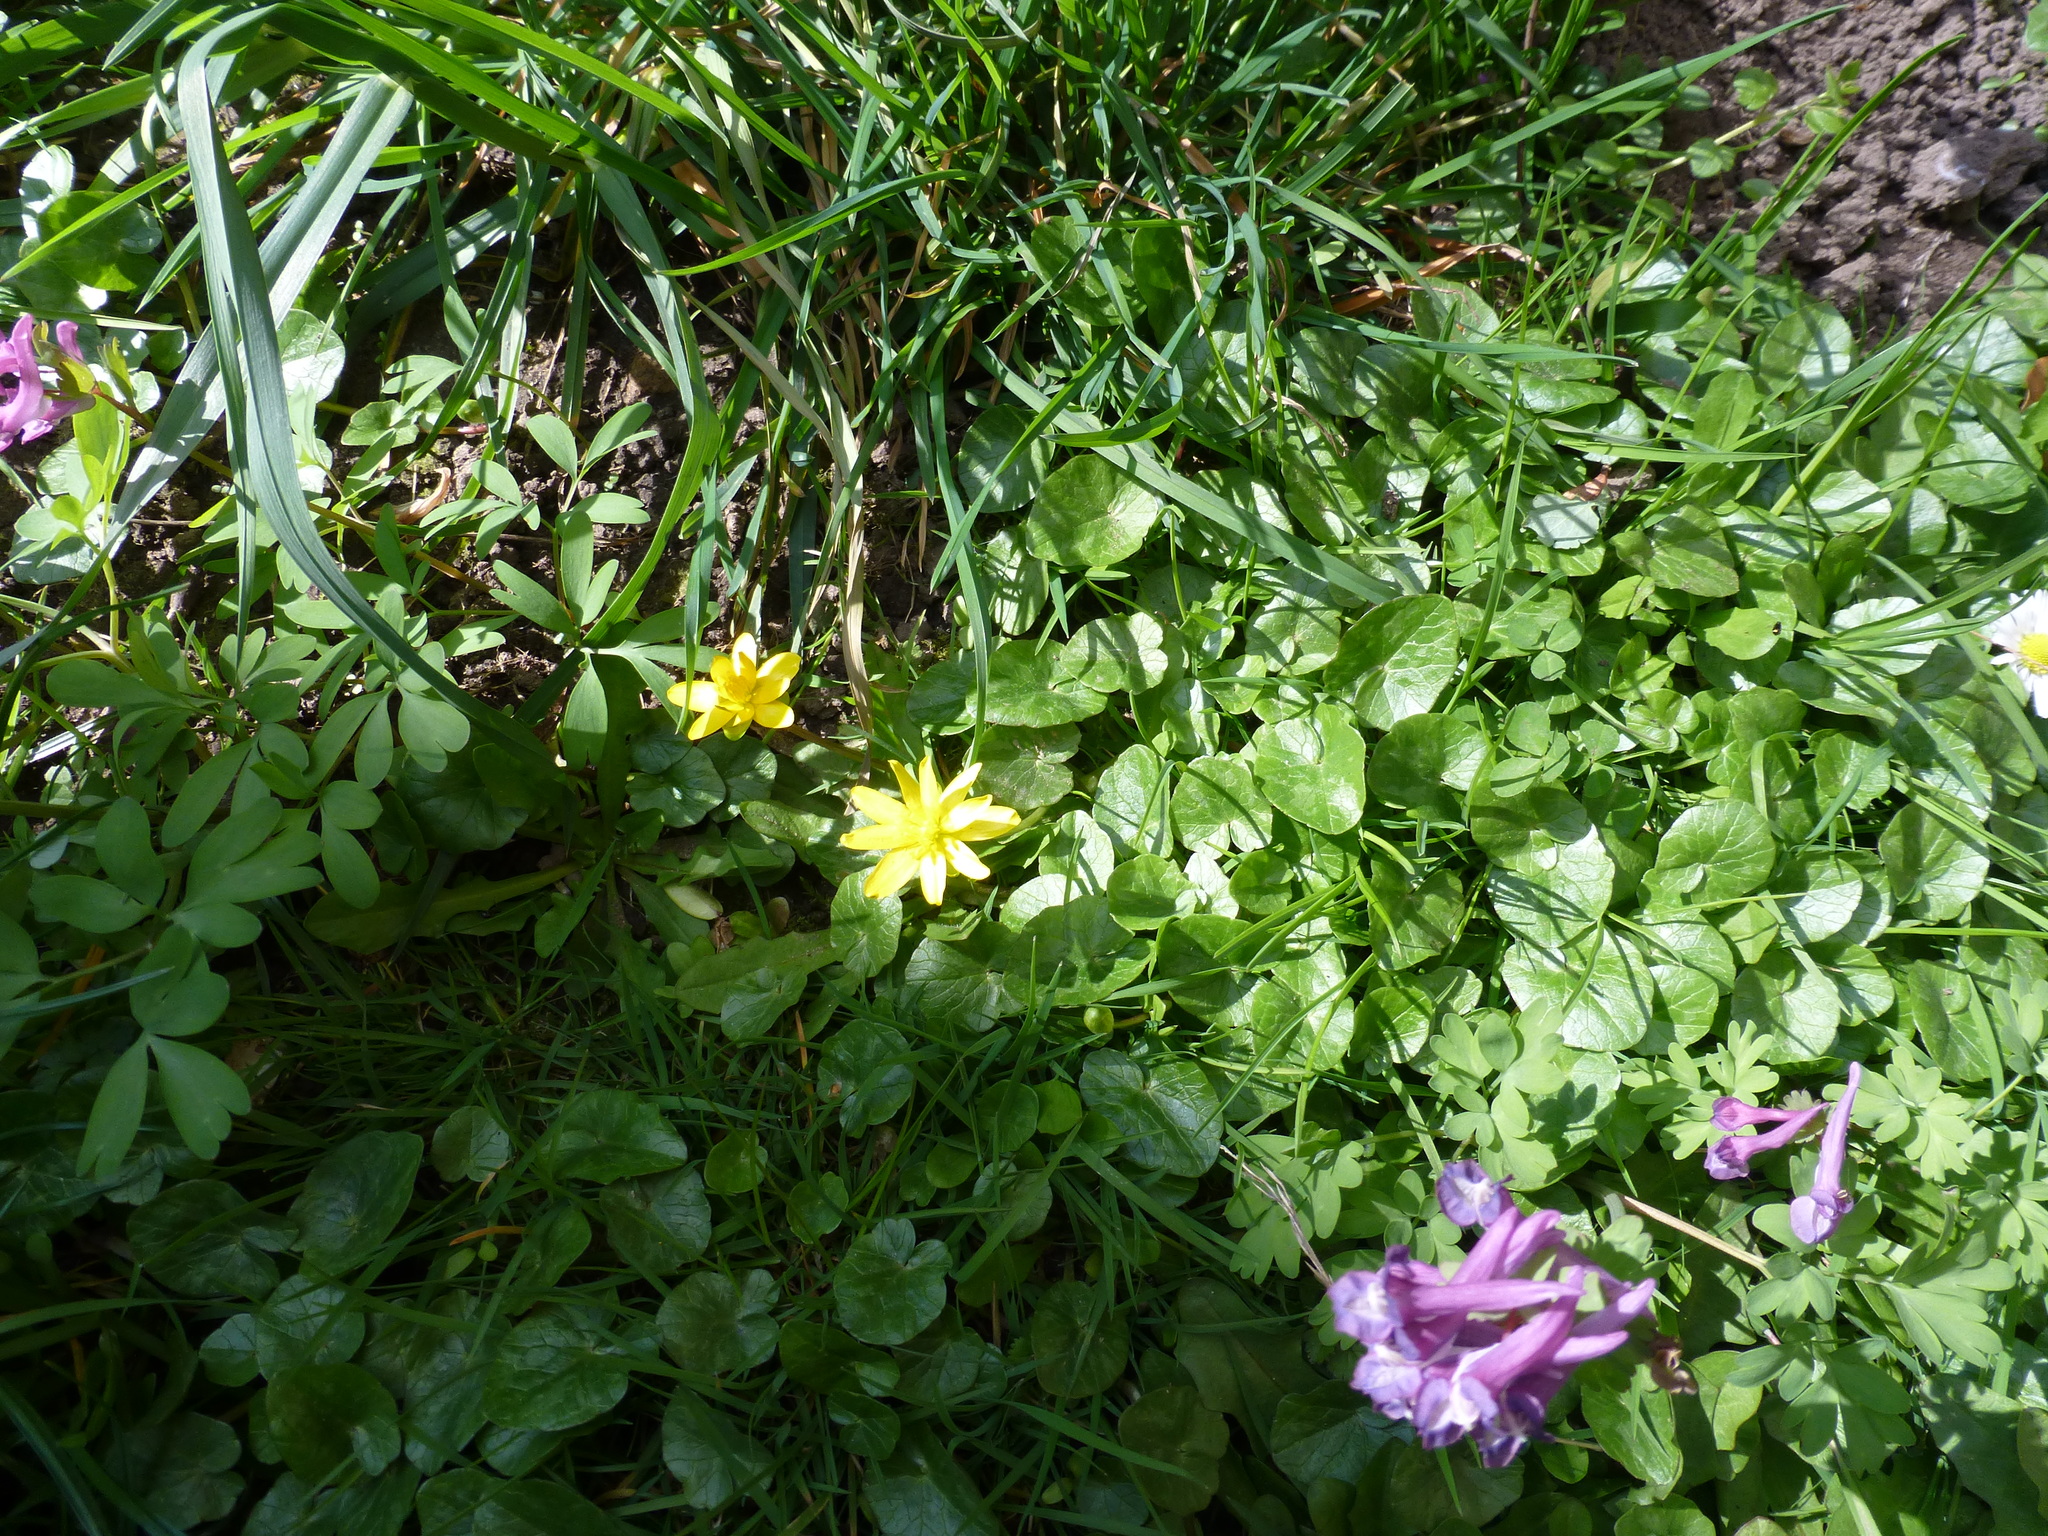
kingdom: Plantae
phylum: Tracheophyta
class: Magnoliopsida
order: Ranunculales
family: Ranunculaceae
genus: Ficaria
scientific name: Ficaria verna
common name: Lesser celandine
